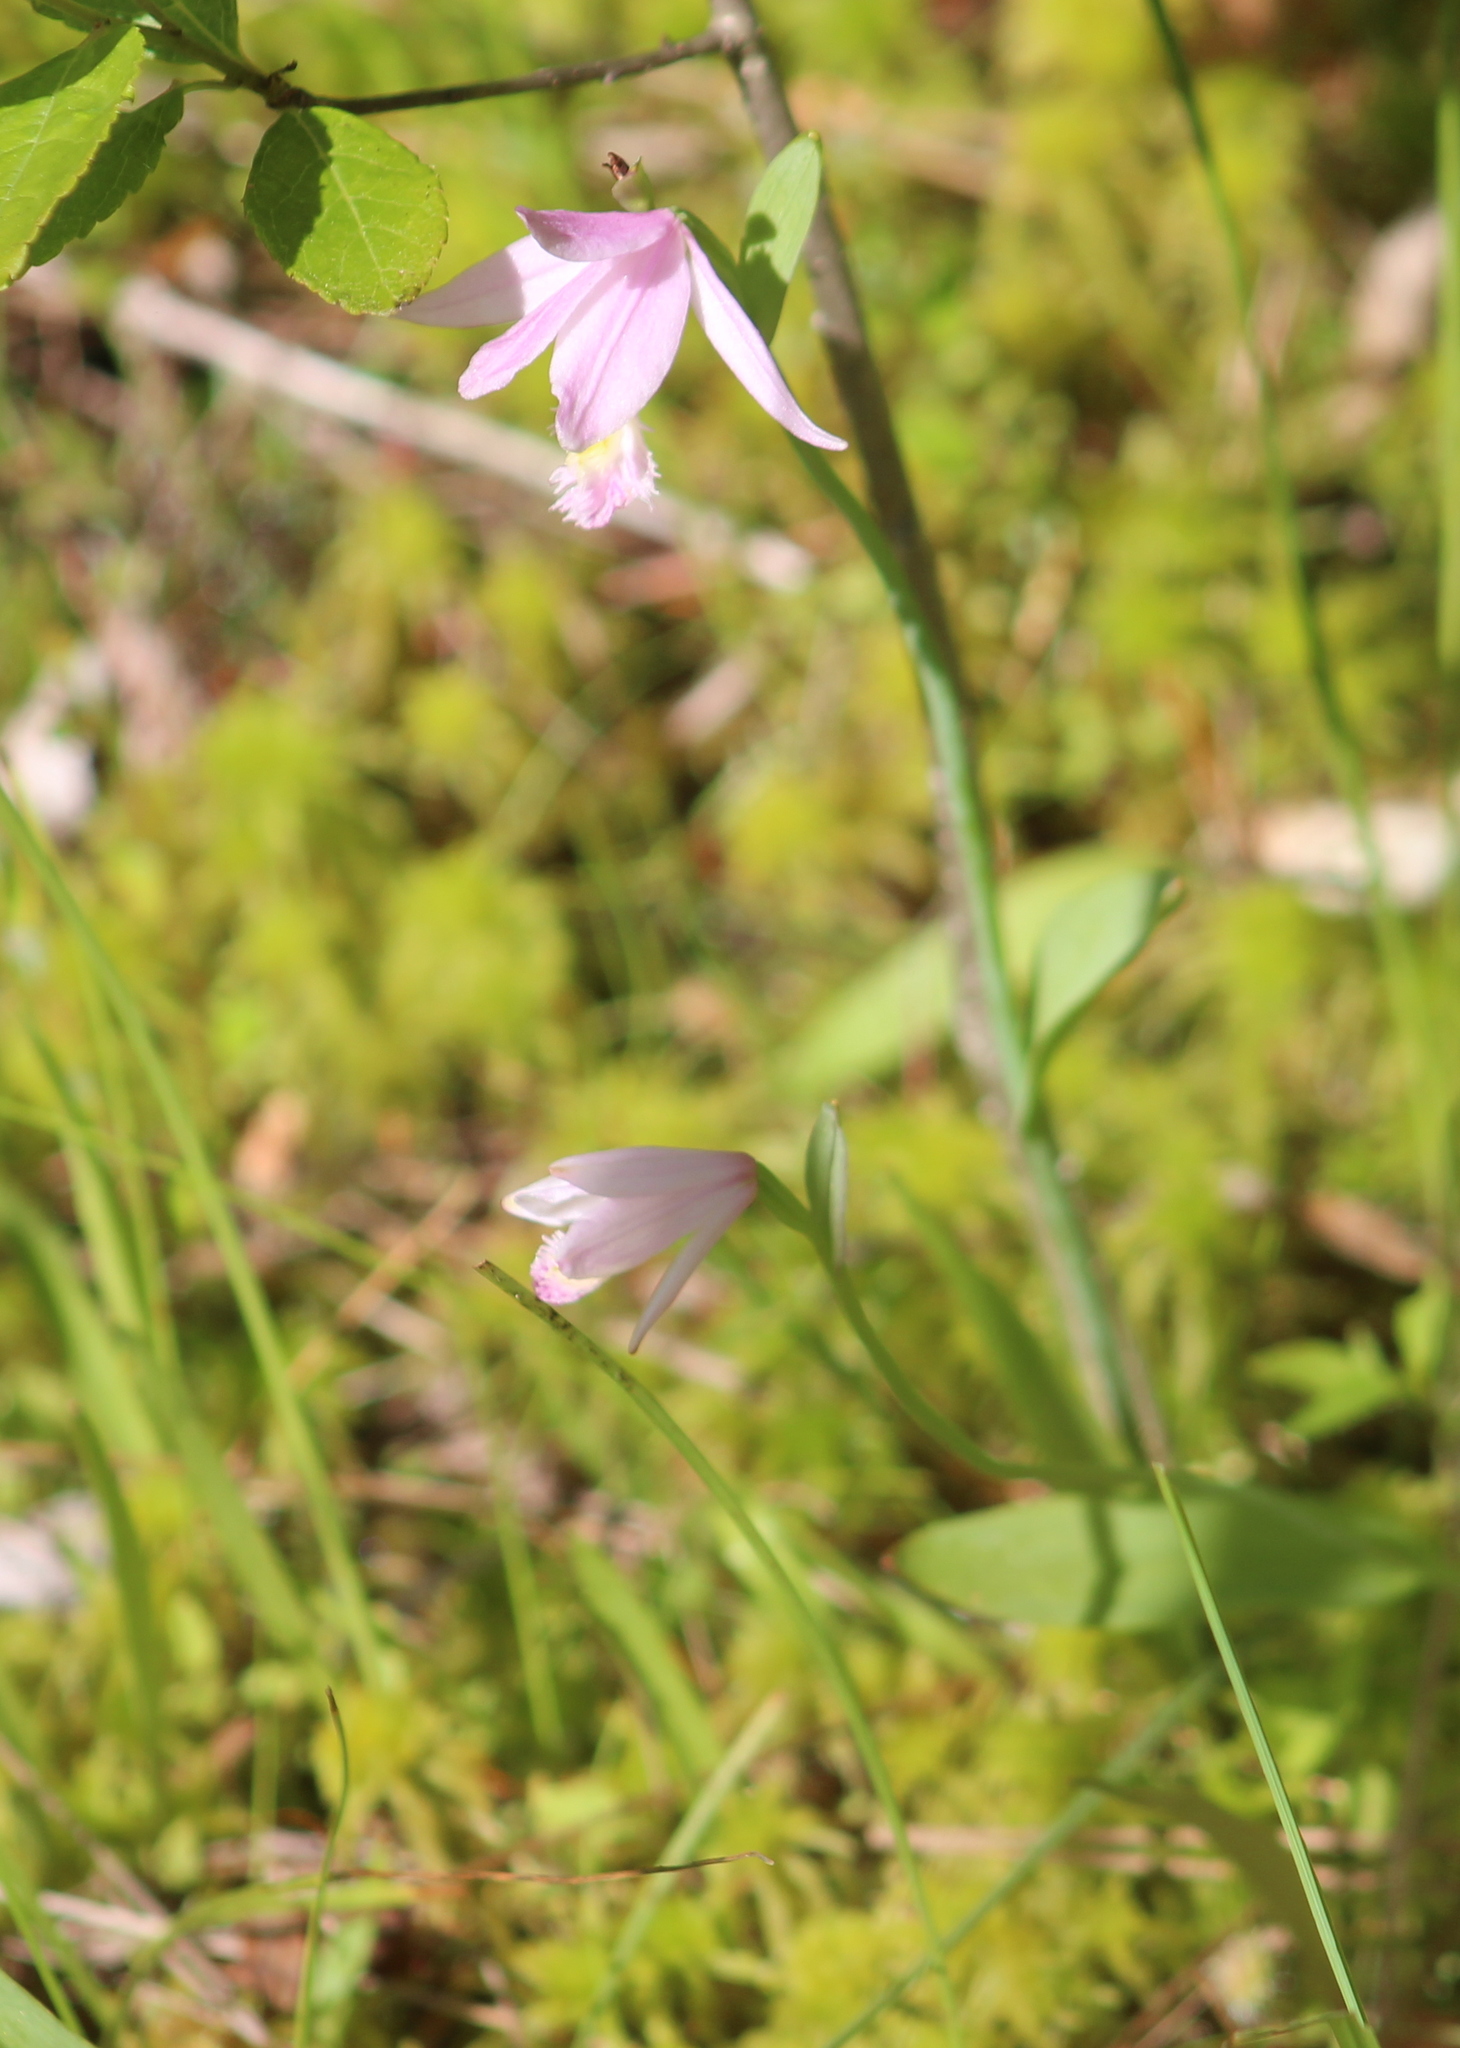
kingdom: Plantae
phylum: Tracheophyta
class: Liliopsida
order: Asparagales
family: Orchidaceae
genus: Pogonia
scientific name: Pogonia ophioglossoides
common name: Rose pogonia
